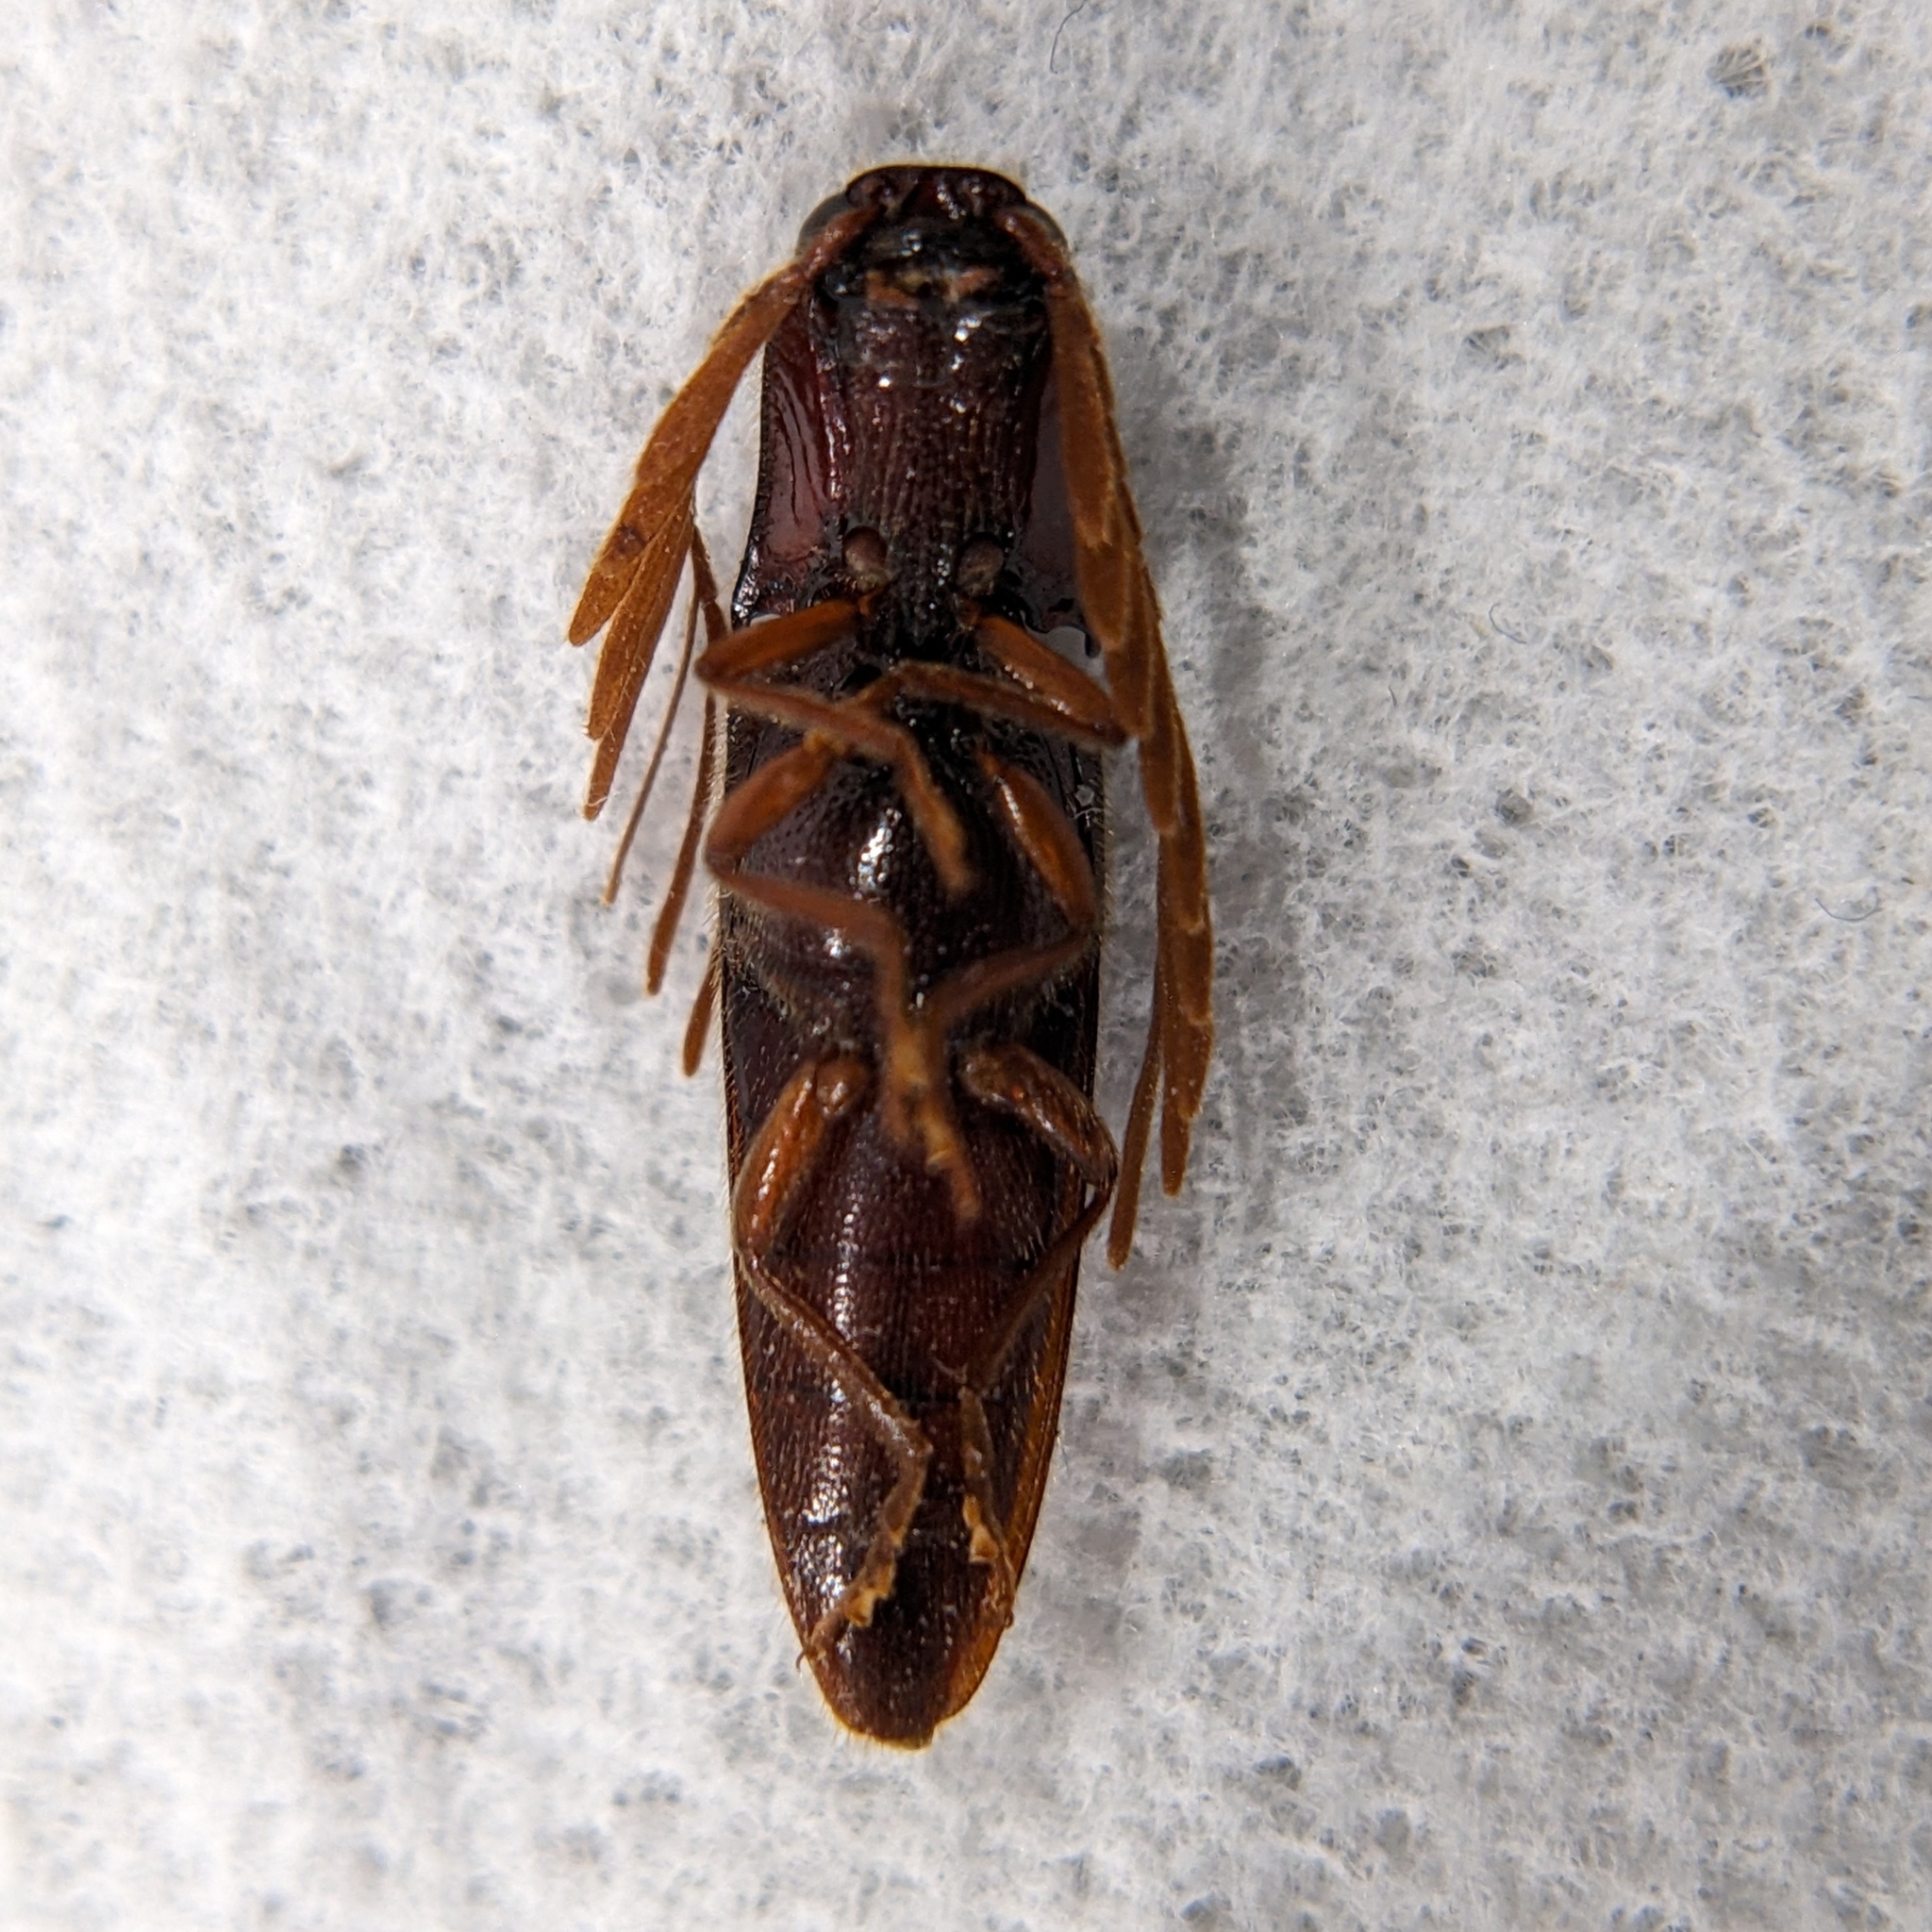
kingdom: Animalia
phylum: Arthropoda
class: Insecta
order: Coleoptera
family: Elateridae
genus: Dicrepidius
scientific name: Dicrepidius palmatus
